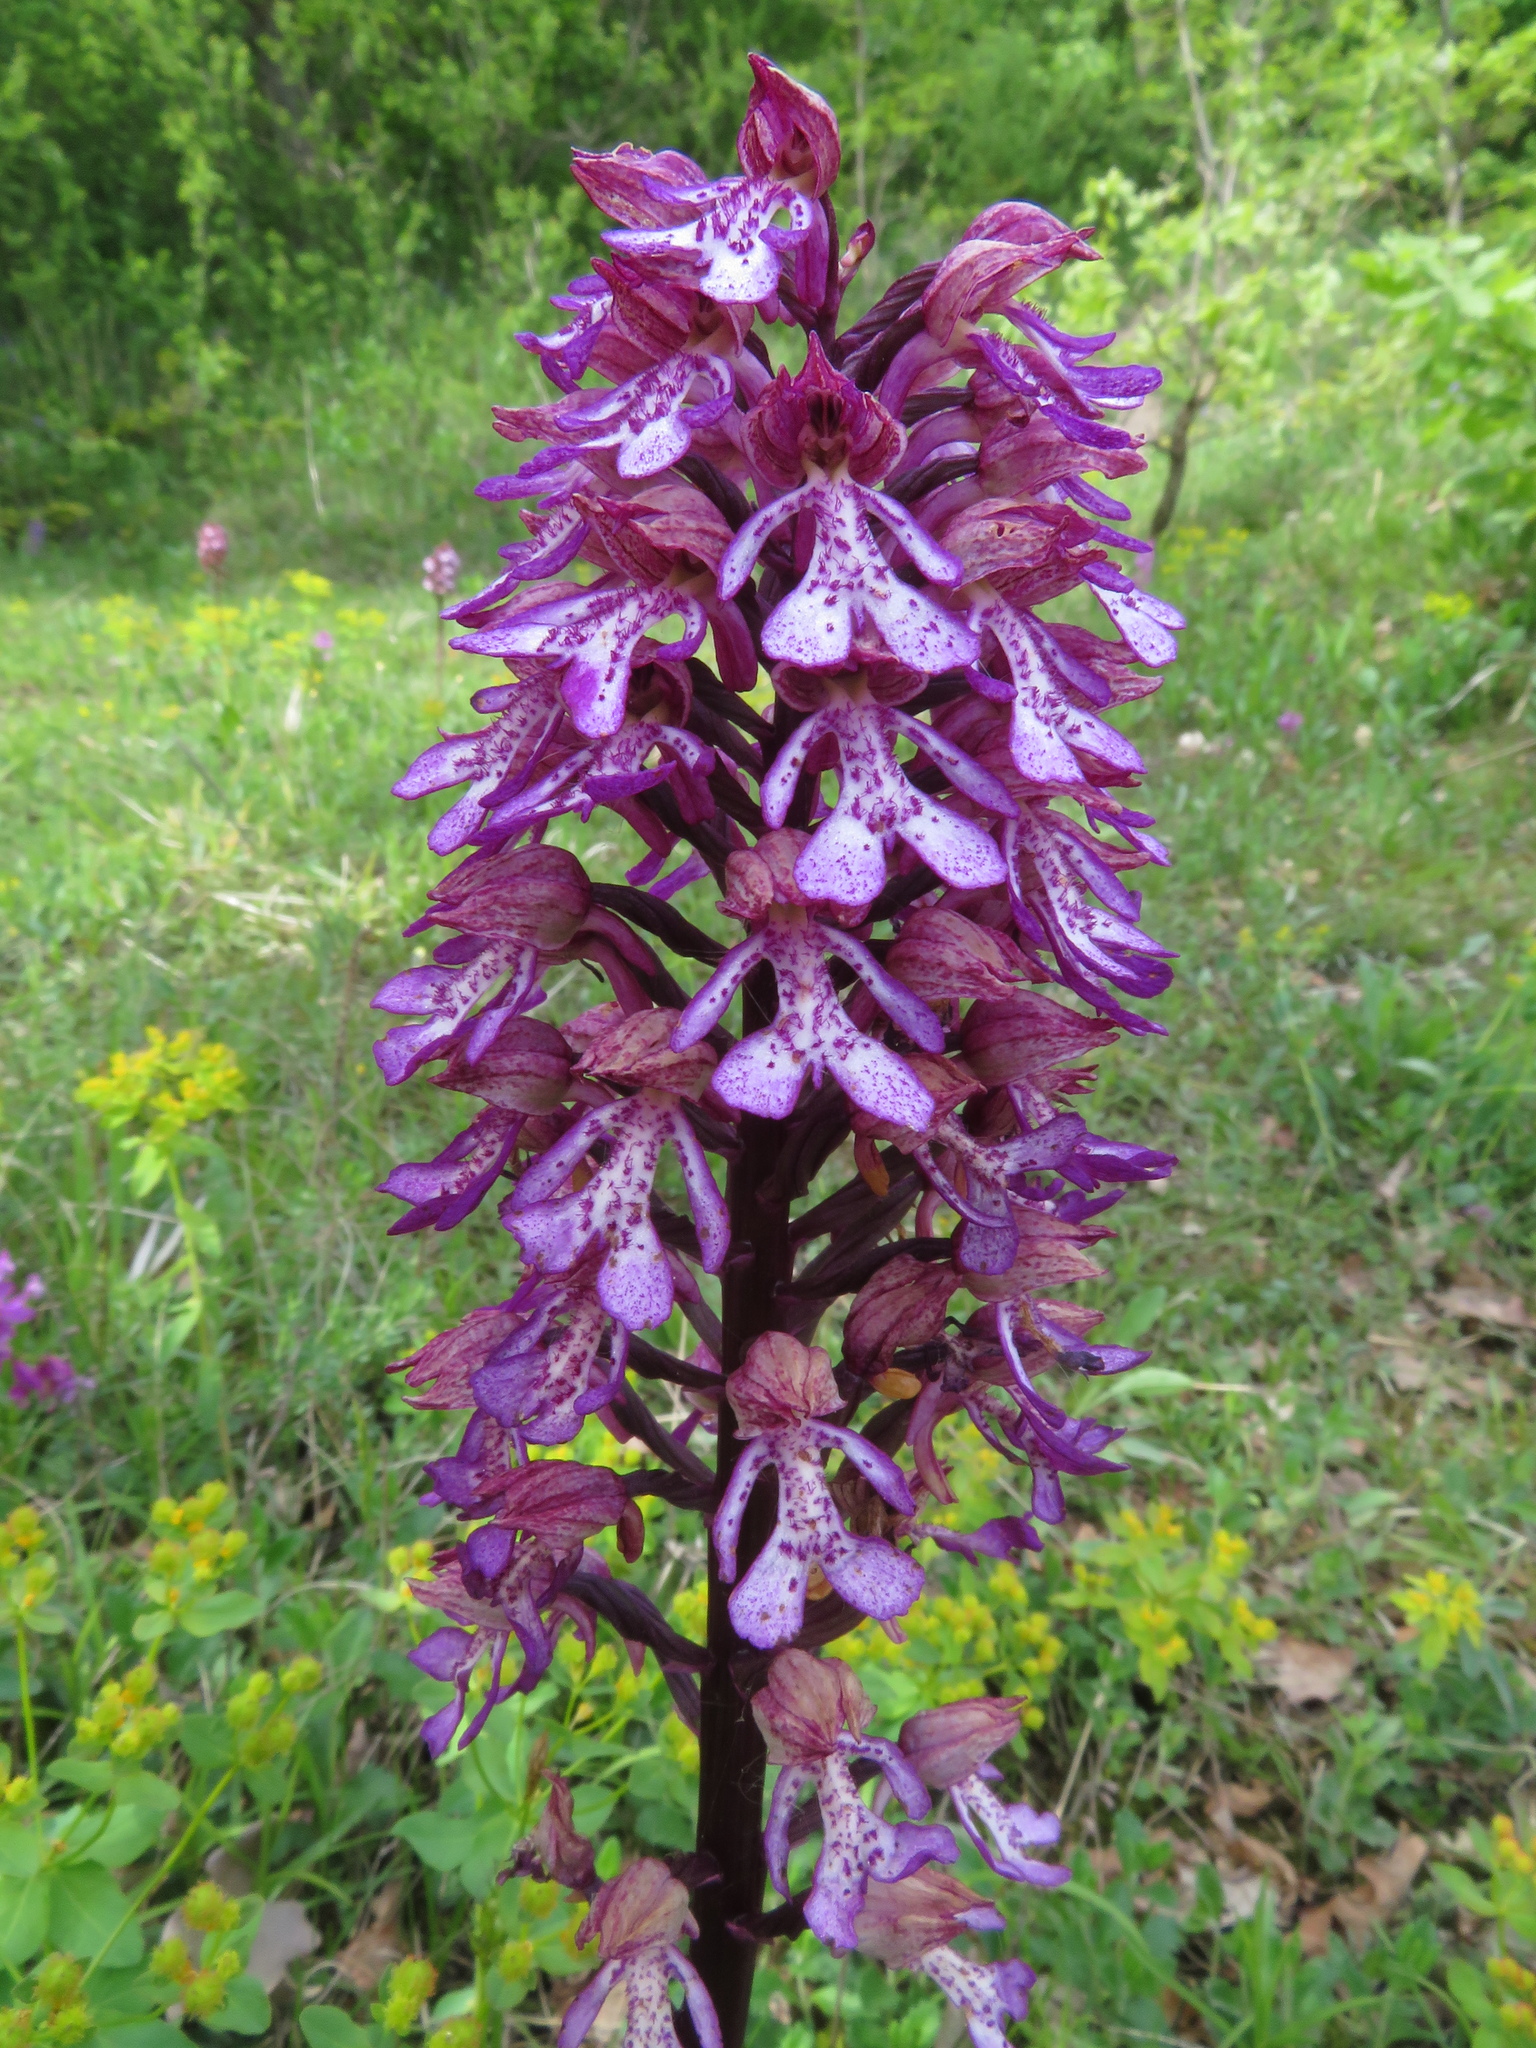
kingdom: Plantae
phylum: Tracheophyta
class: Liliopsida
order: Asparagales
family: Orchidaceae
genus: Orchis
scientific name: Orchis hybrida
